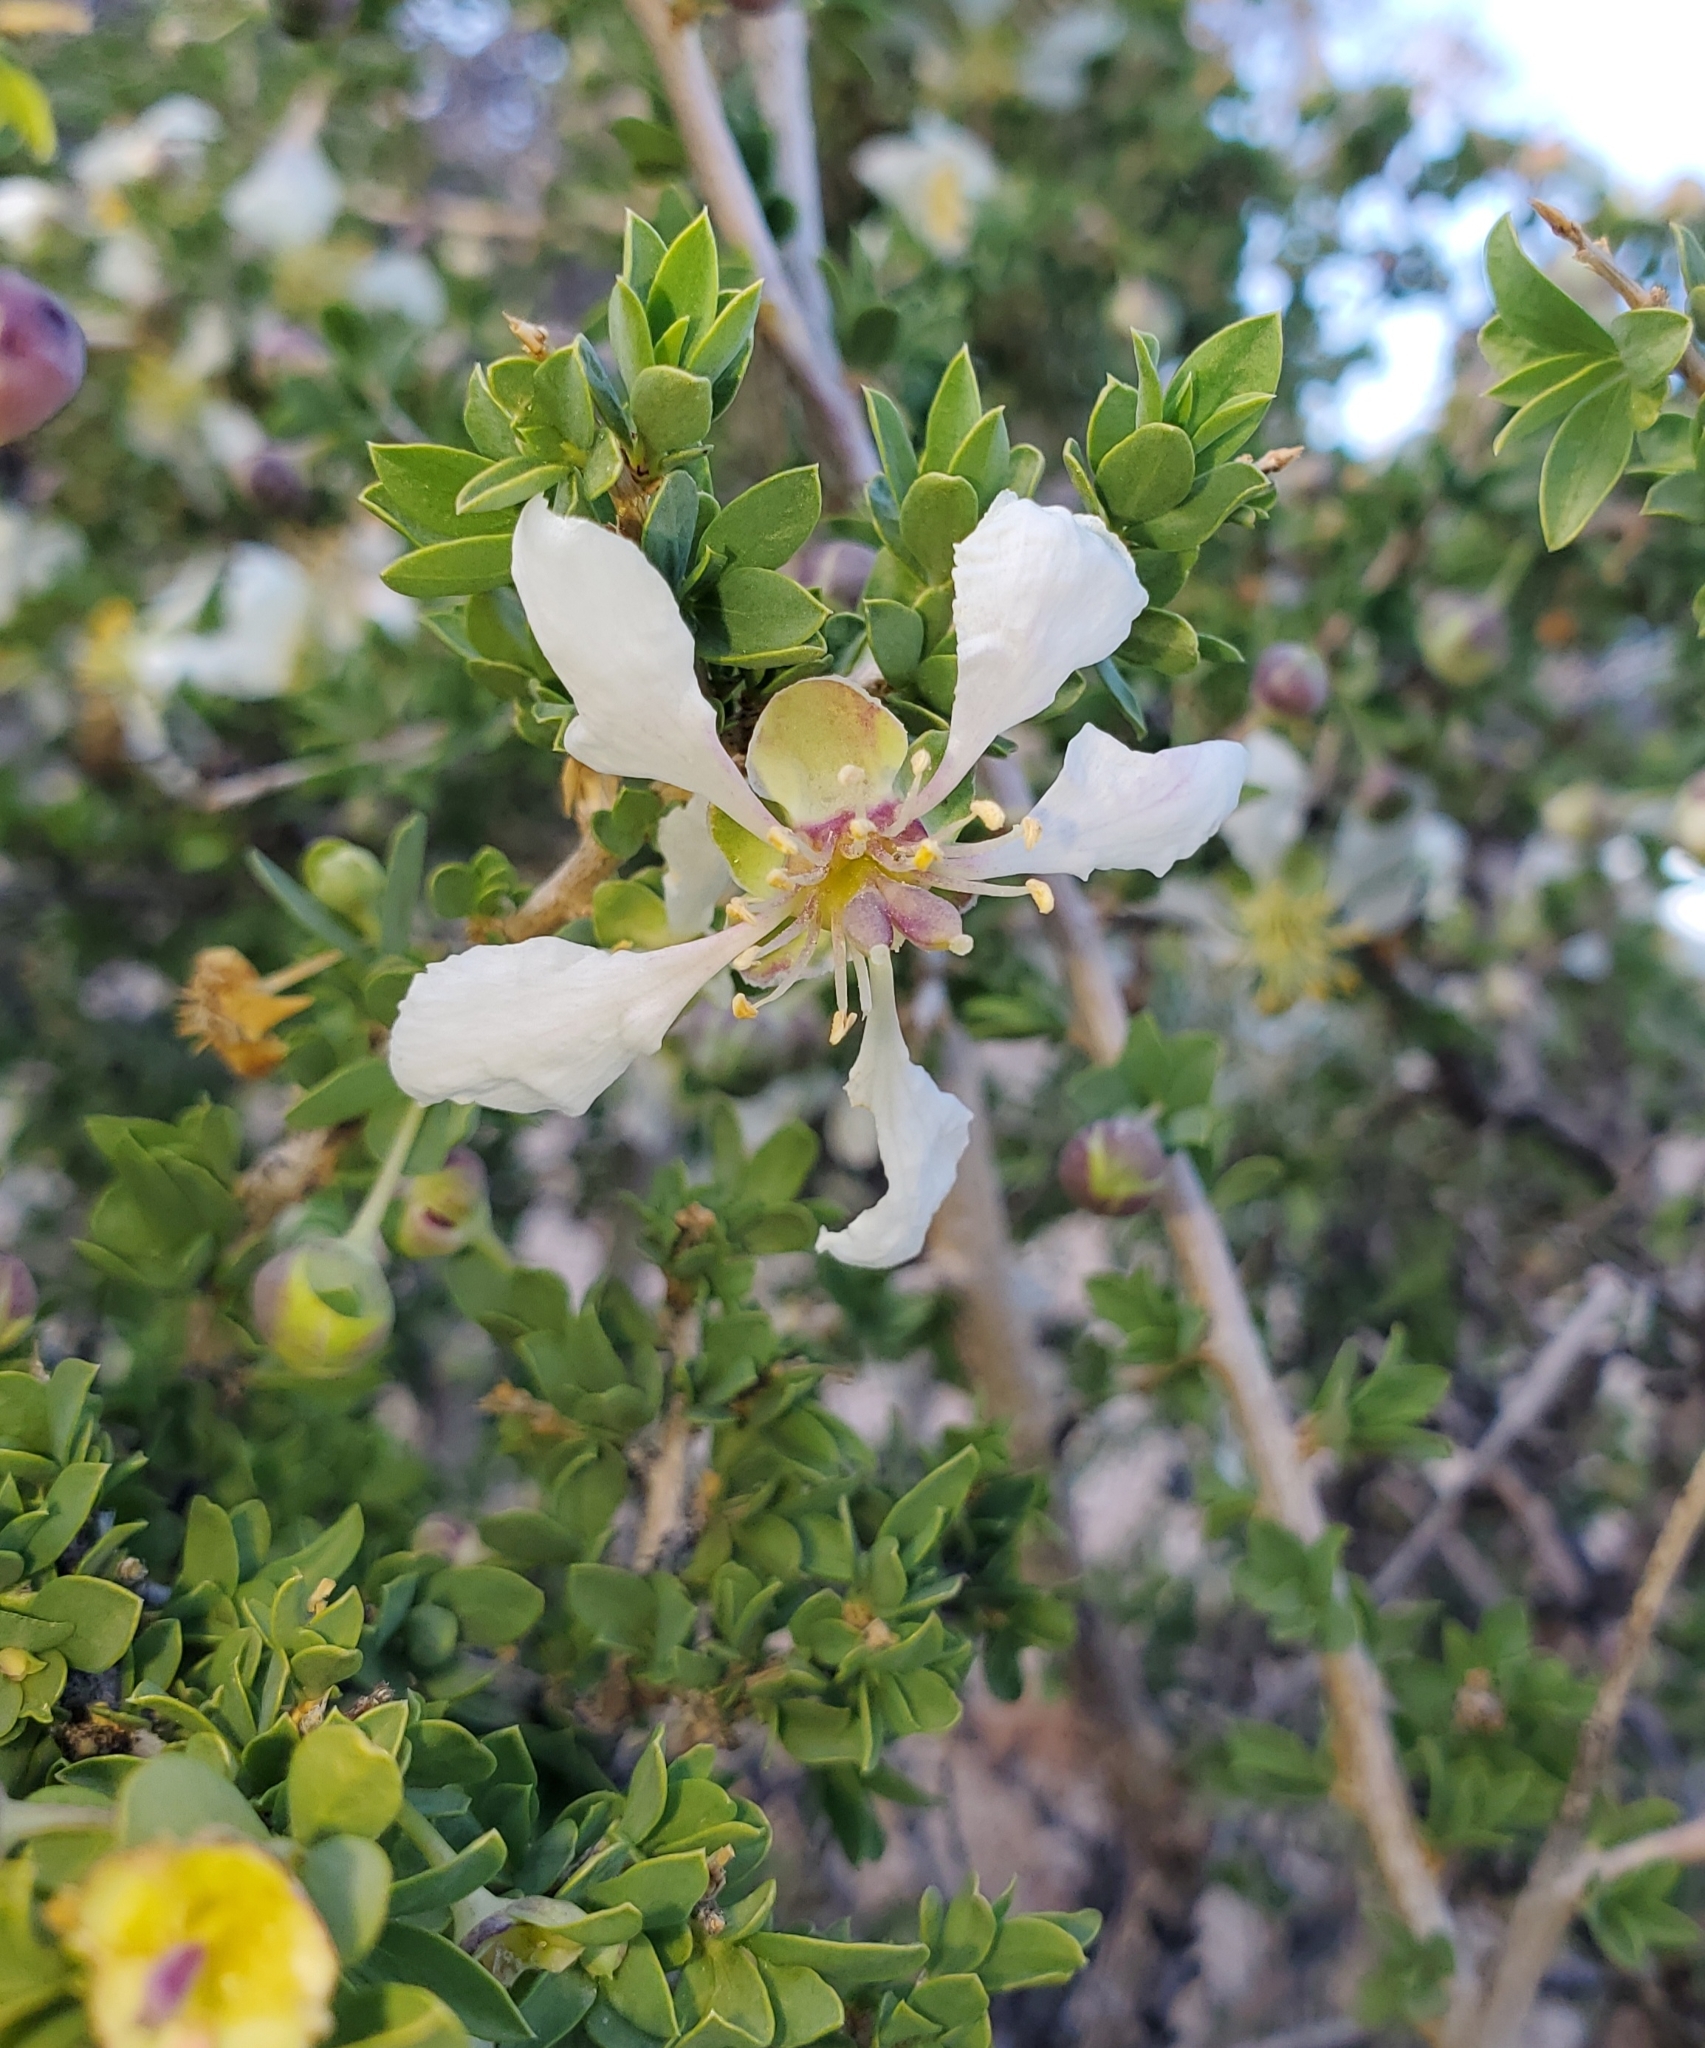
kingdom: Plantae
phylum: Tracheophyta
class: Magnoliopsida
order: Crossosomatales
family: Crossosomataceae
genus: Crossosoma
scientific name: Crossosoma bigelovii
